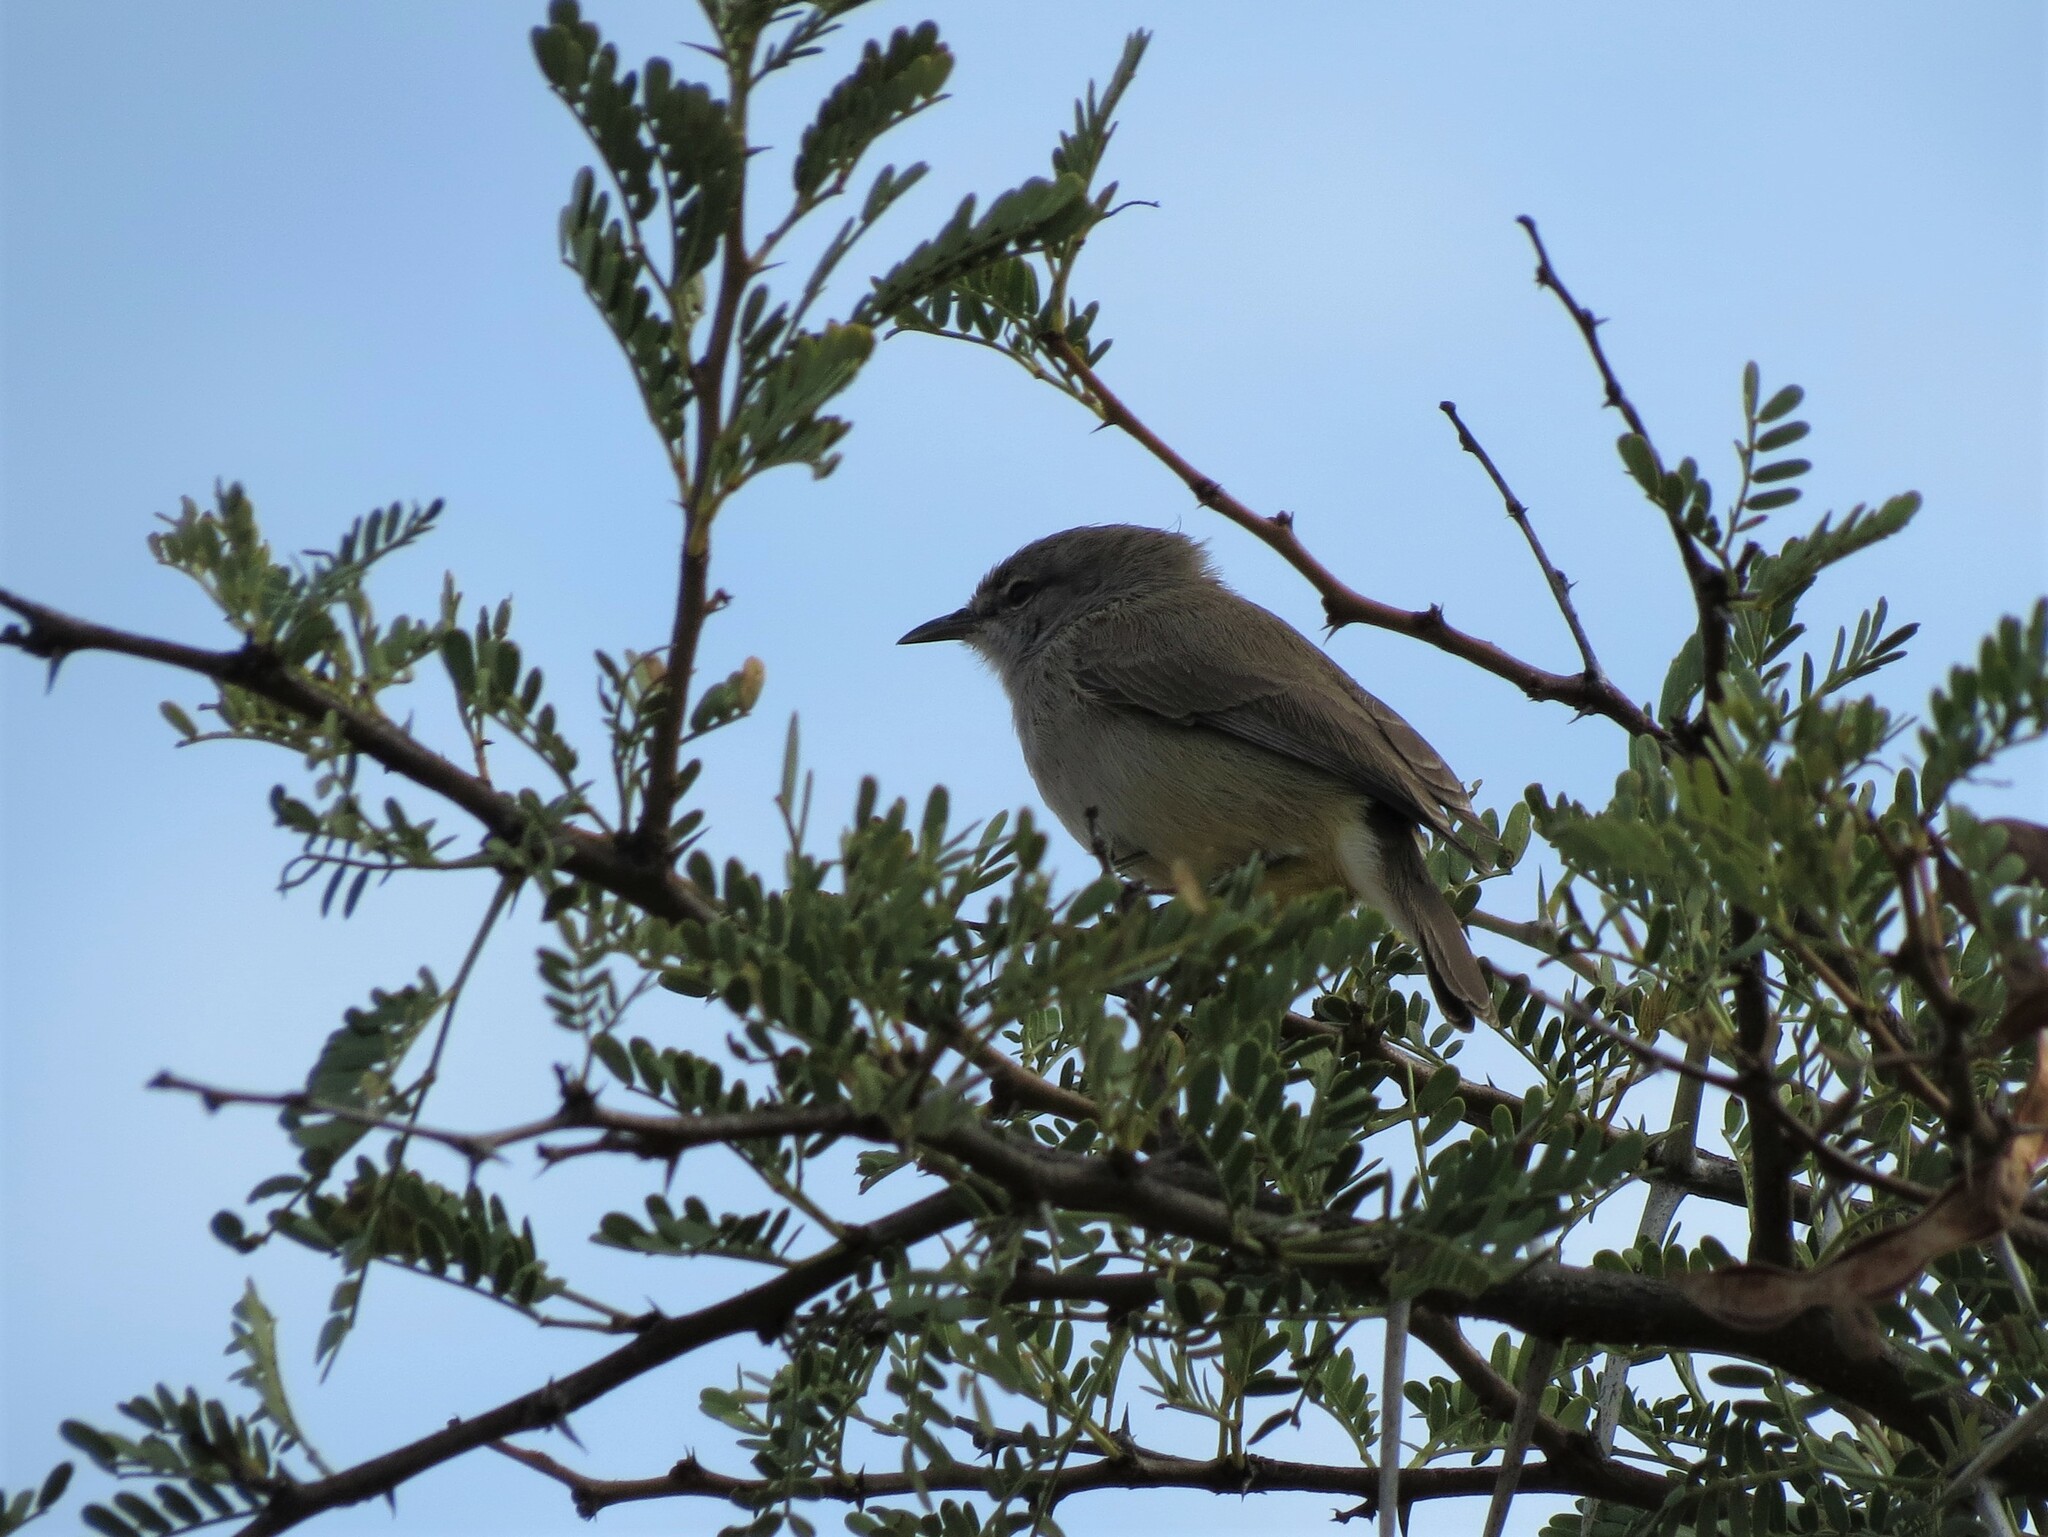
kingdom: Animalia
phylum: Chordata
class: Aves
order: Passeriformes
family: Cisticolidae
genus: Eremomela
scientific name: Eremomela icteropygialis
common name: Yellow-bellied eremomela
